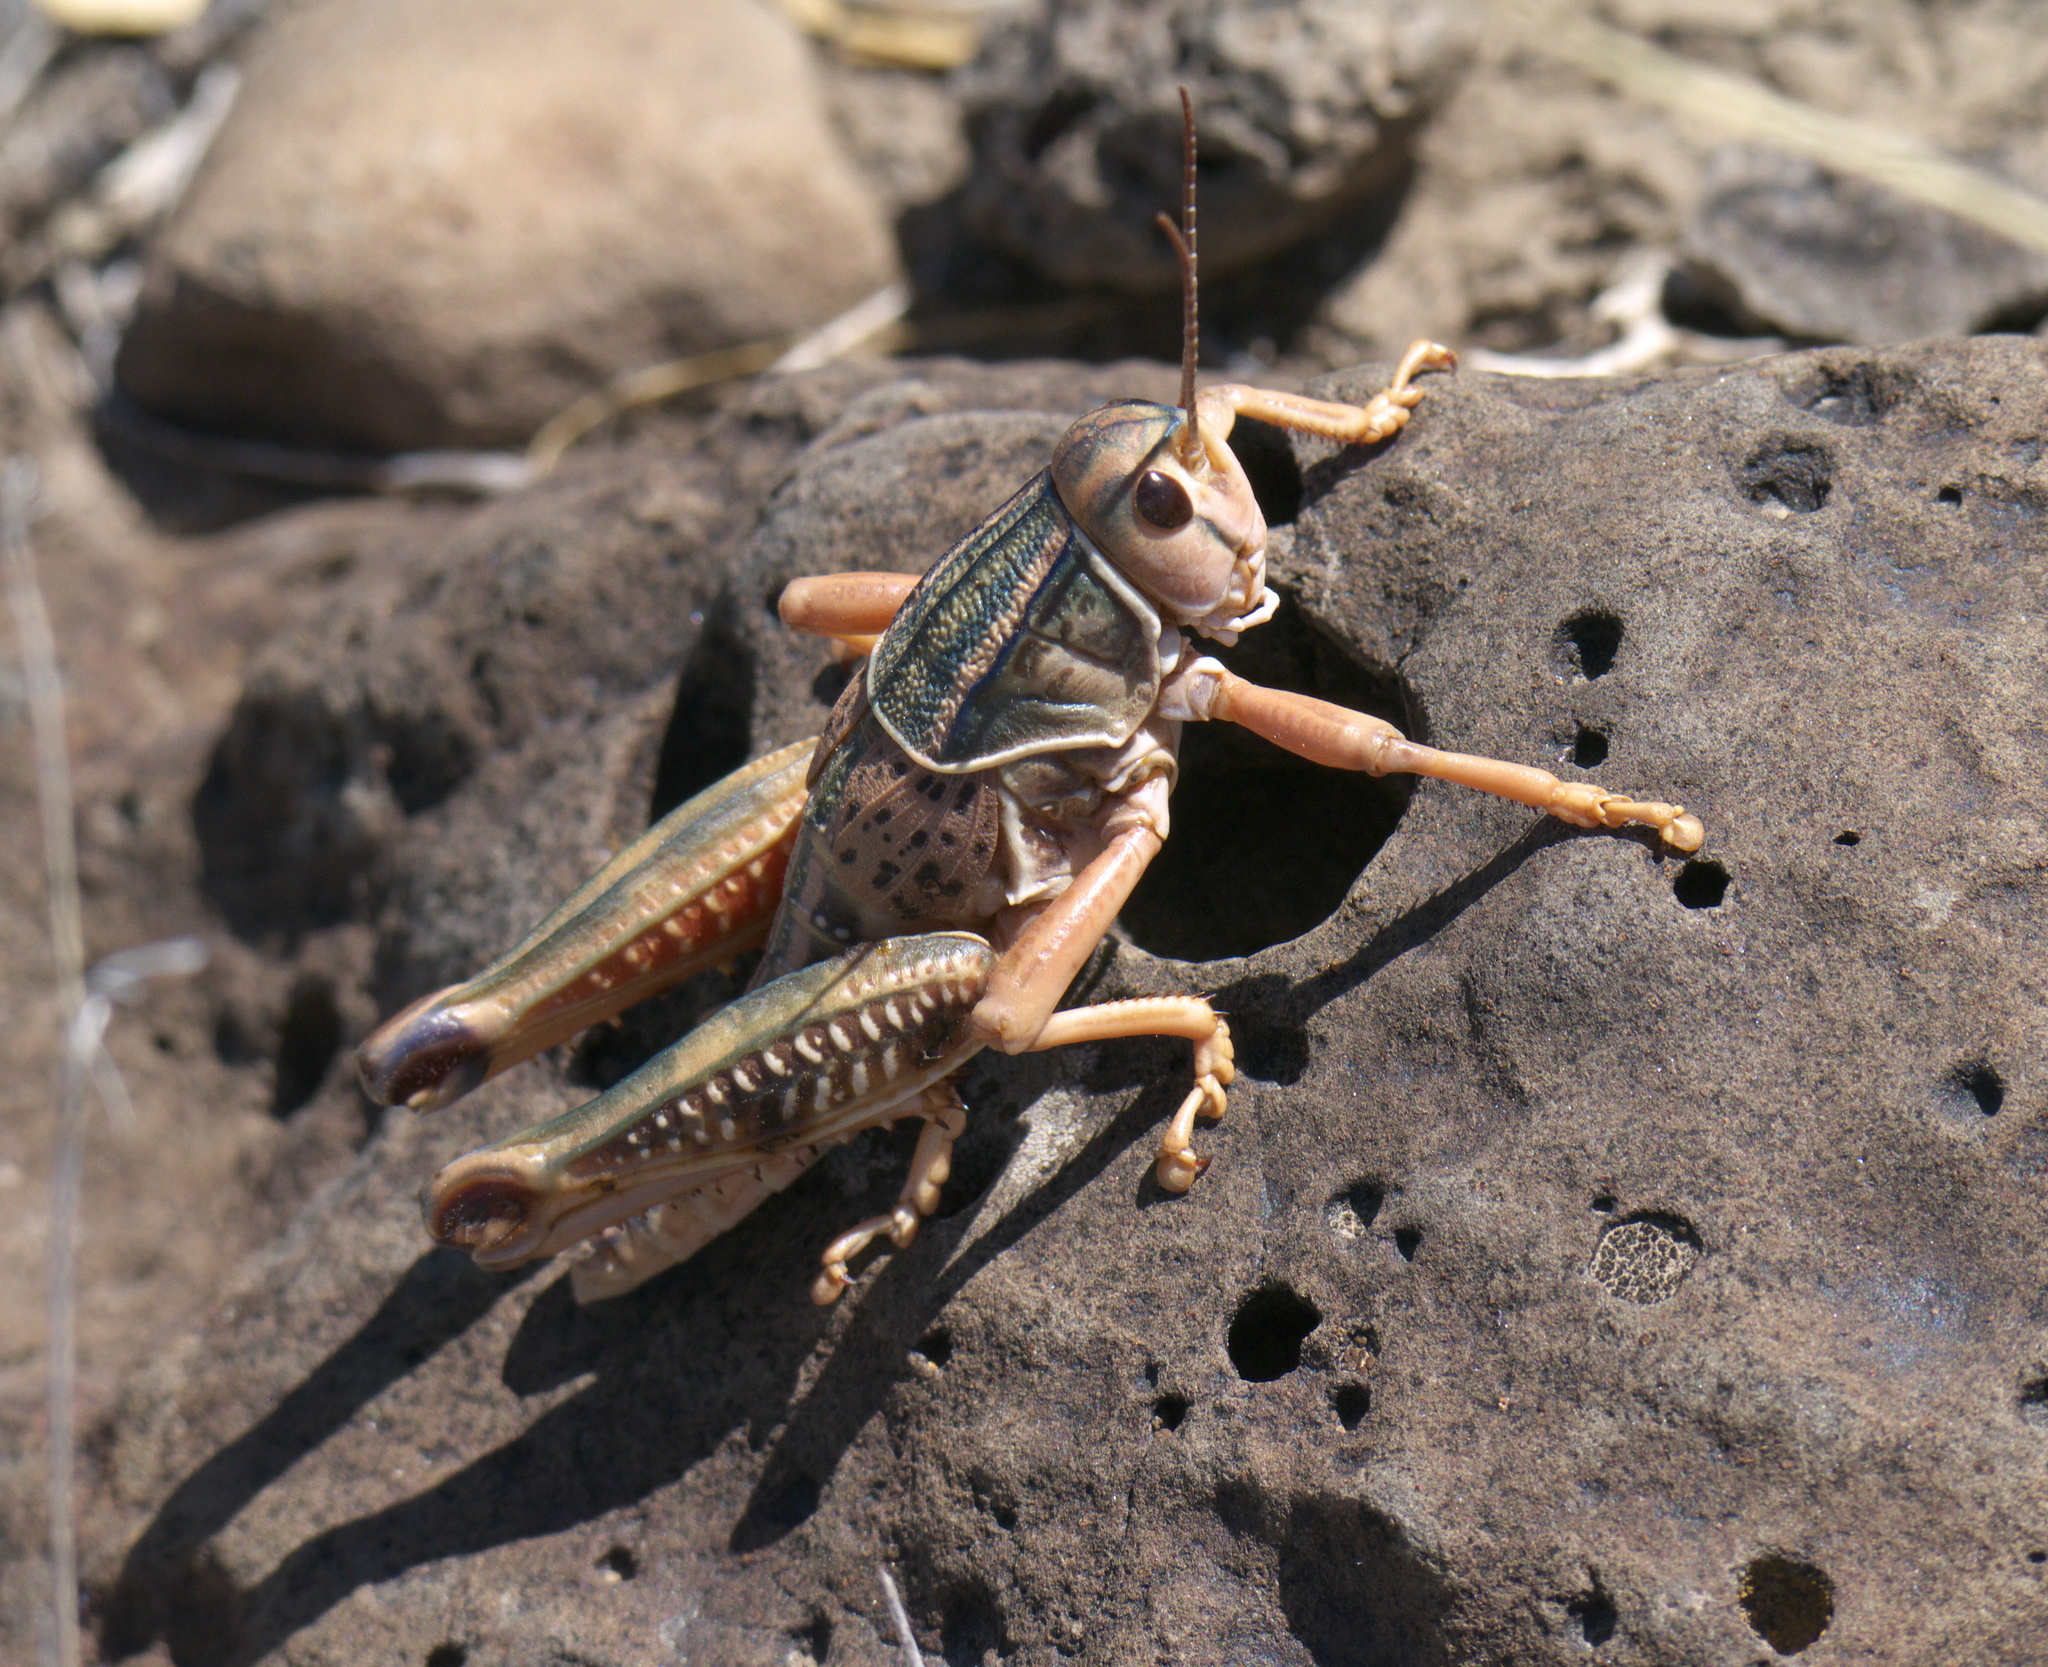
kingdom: Animalia
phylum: Arthropoda
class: Insecta
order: Orthoptera
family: Romaleidae
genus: Brachystola
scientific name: Brachystola magna
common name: Plains lubber grasshopper
